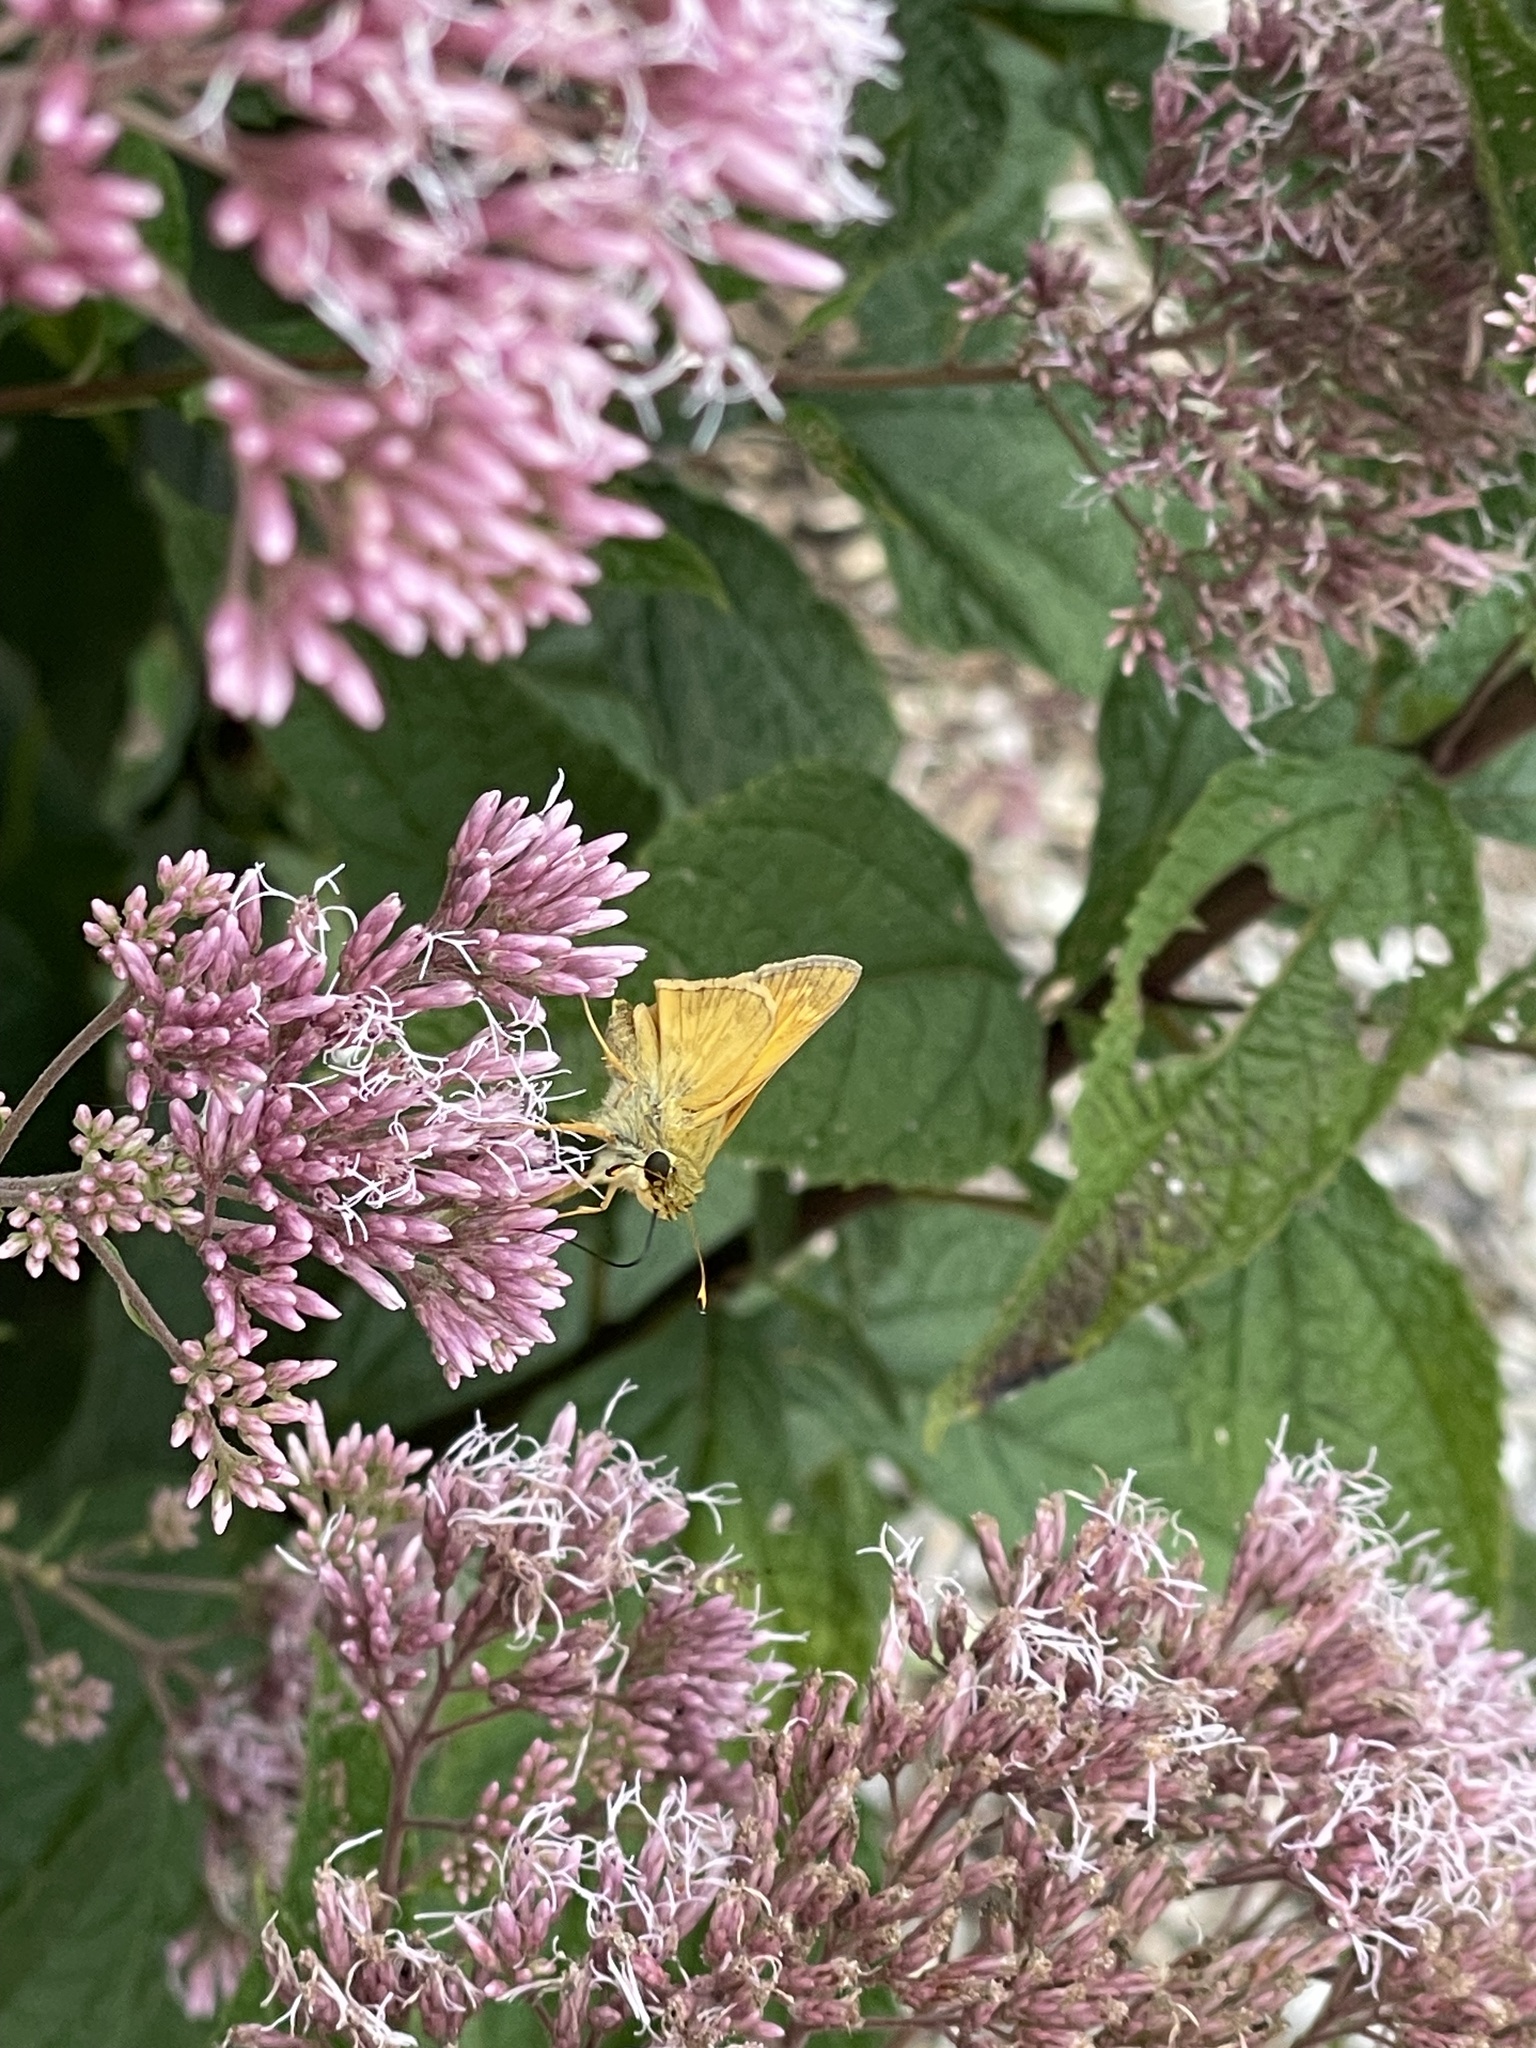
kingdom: Animalia
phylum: Arthropoda
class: Insecta
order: Lepidoptera
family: Hesperiidae
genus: Atalopedes
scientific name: Atalopedes
